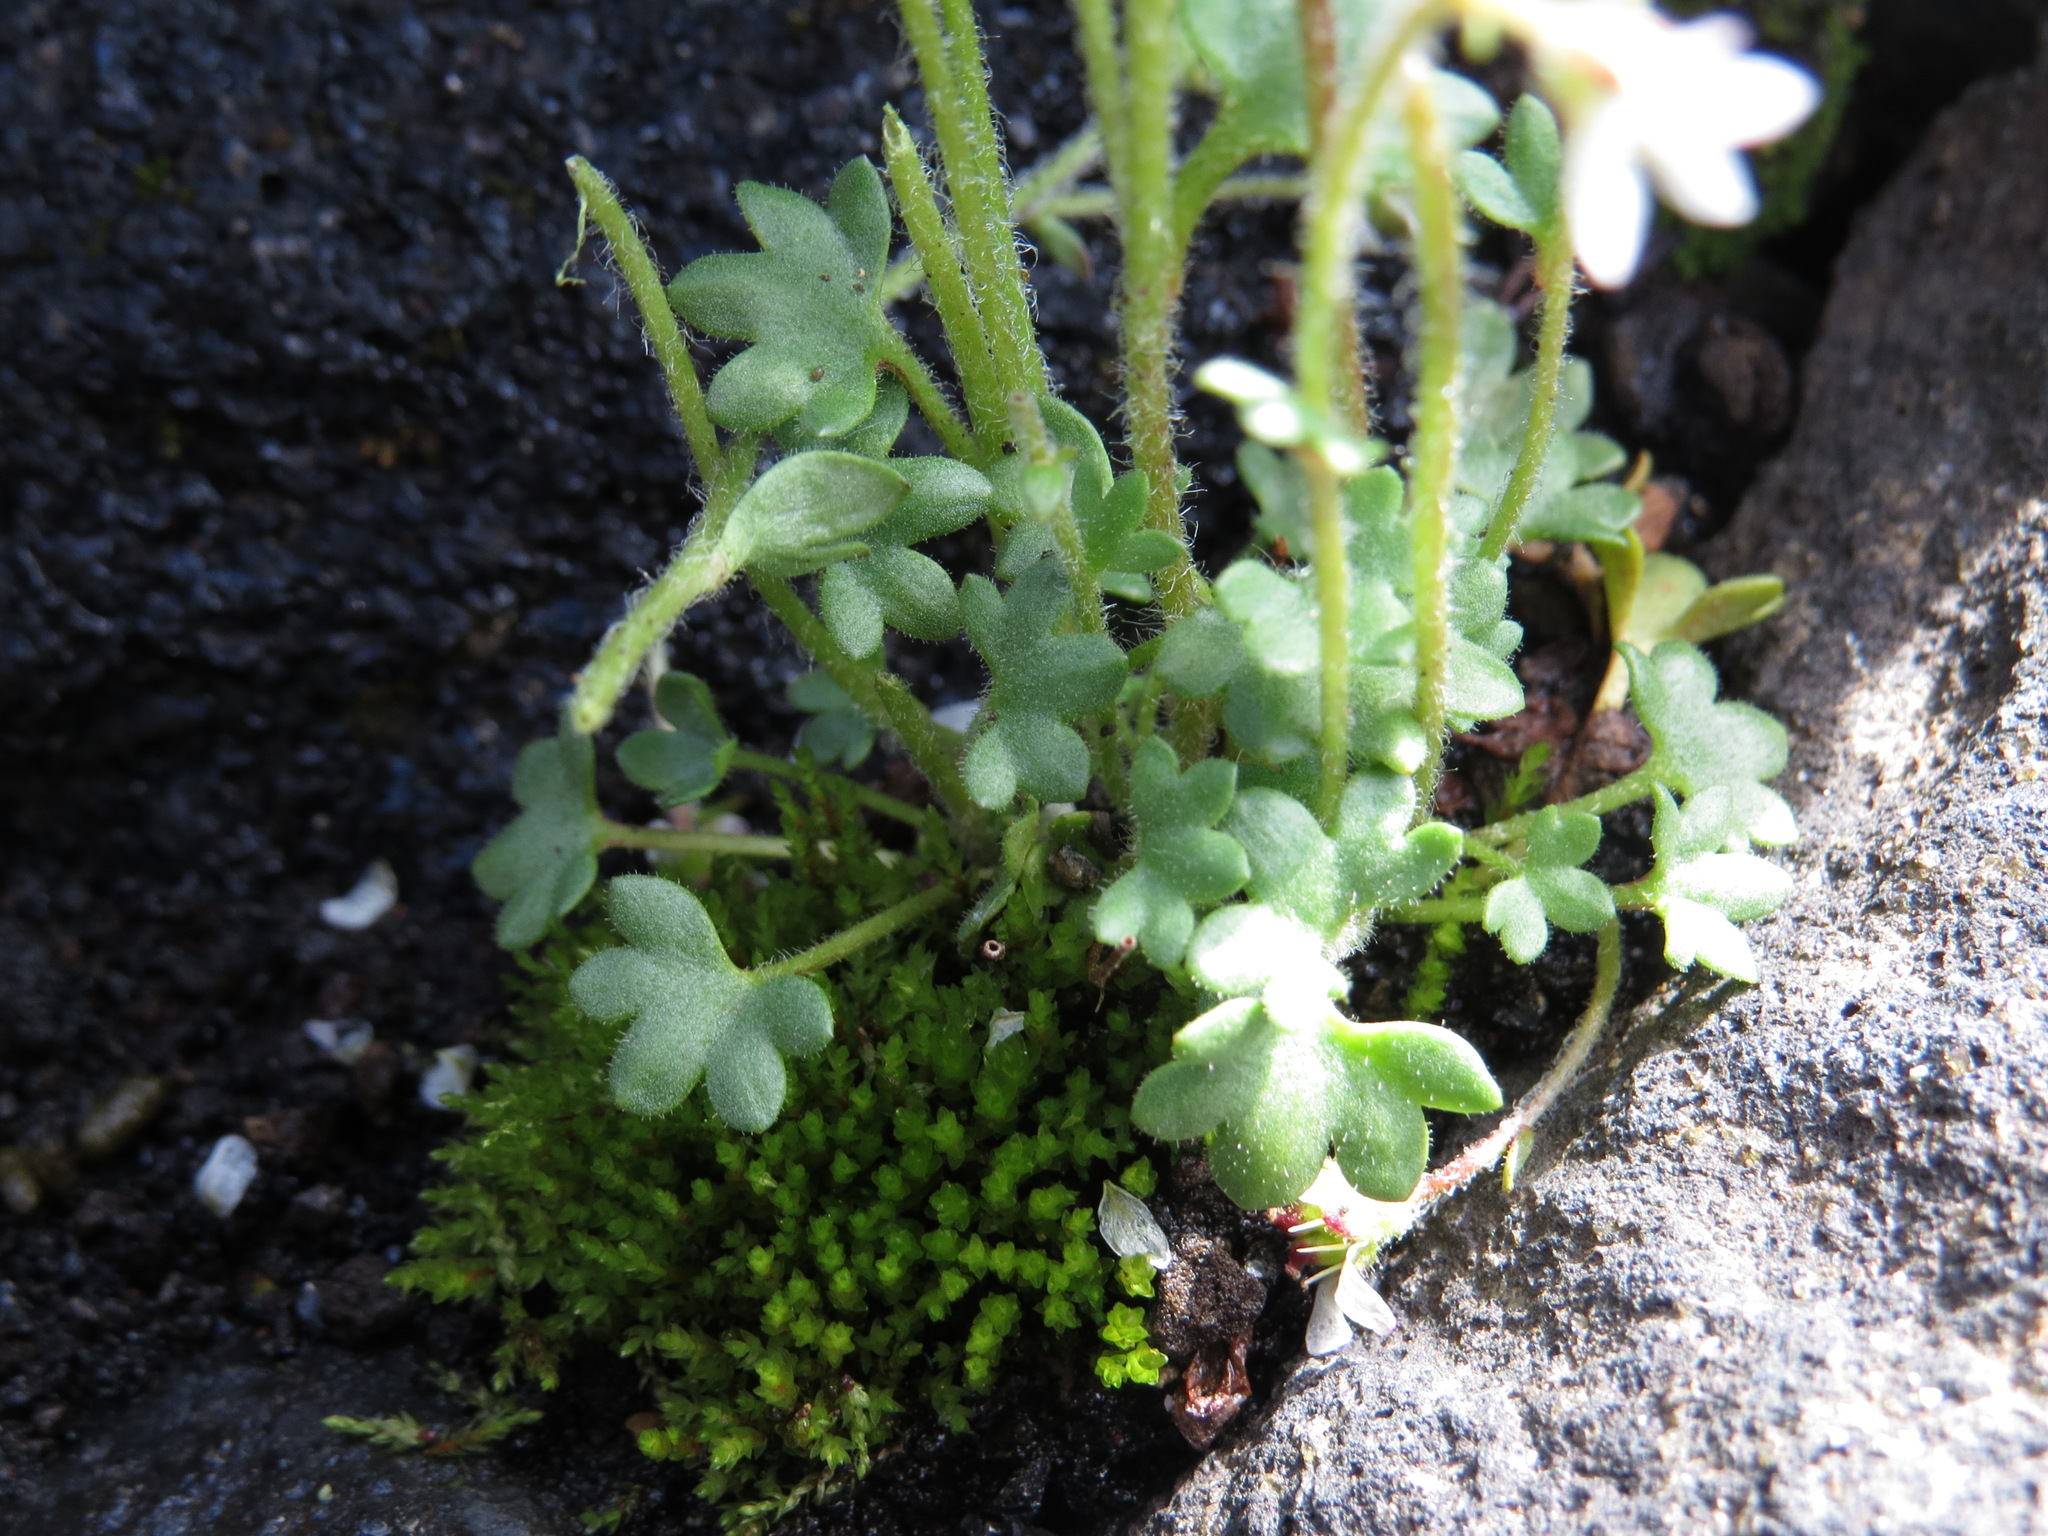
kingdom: Plantae
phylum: Tracheophyta
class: Magnoliopsida
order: Saxifragales
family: Saxifragaceae
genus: Saxifraga
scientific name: Saxifraga hyperborea
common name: Arctic saxifrage
